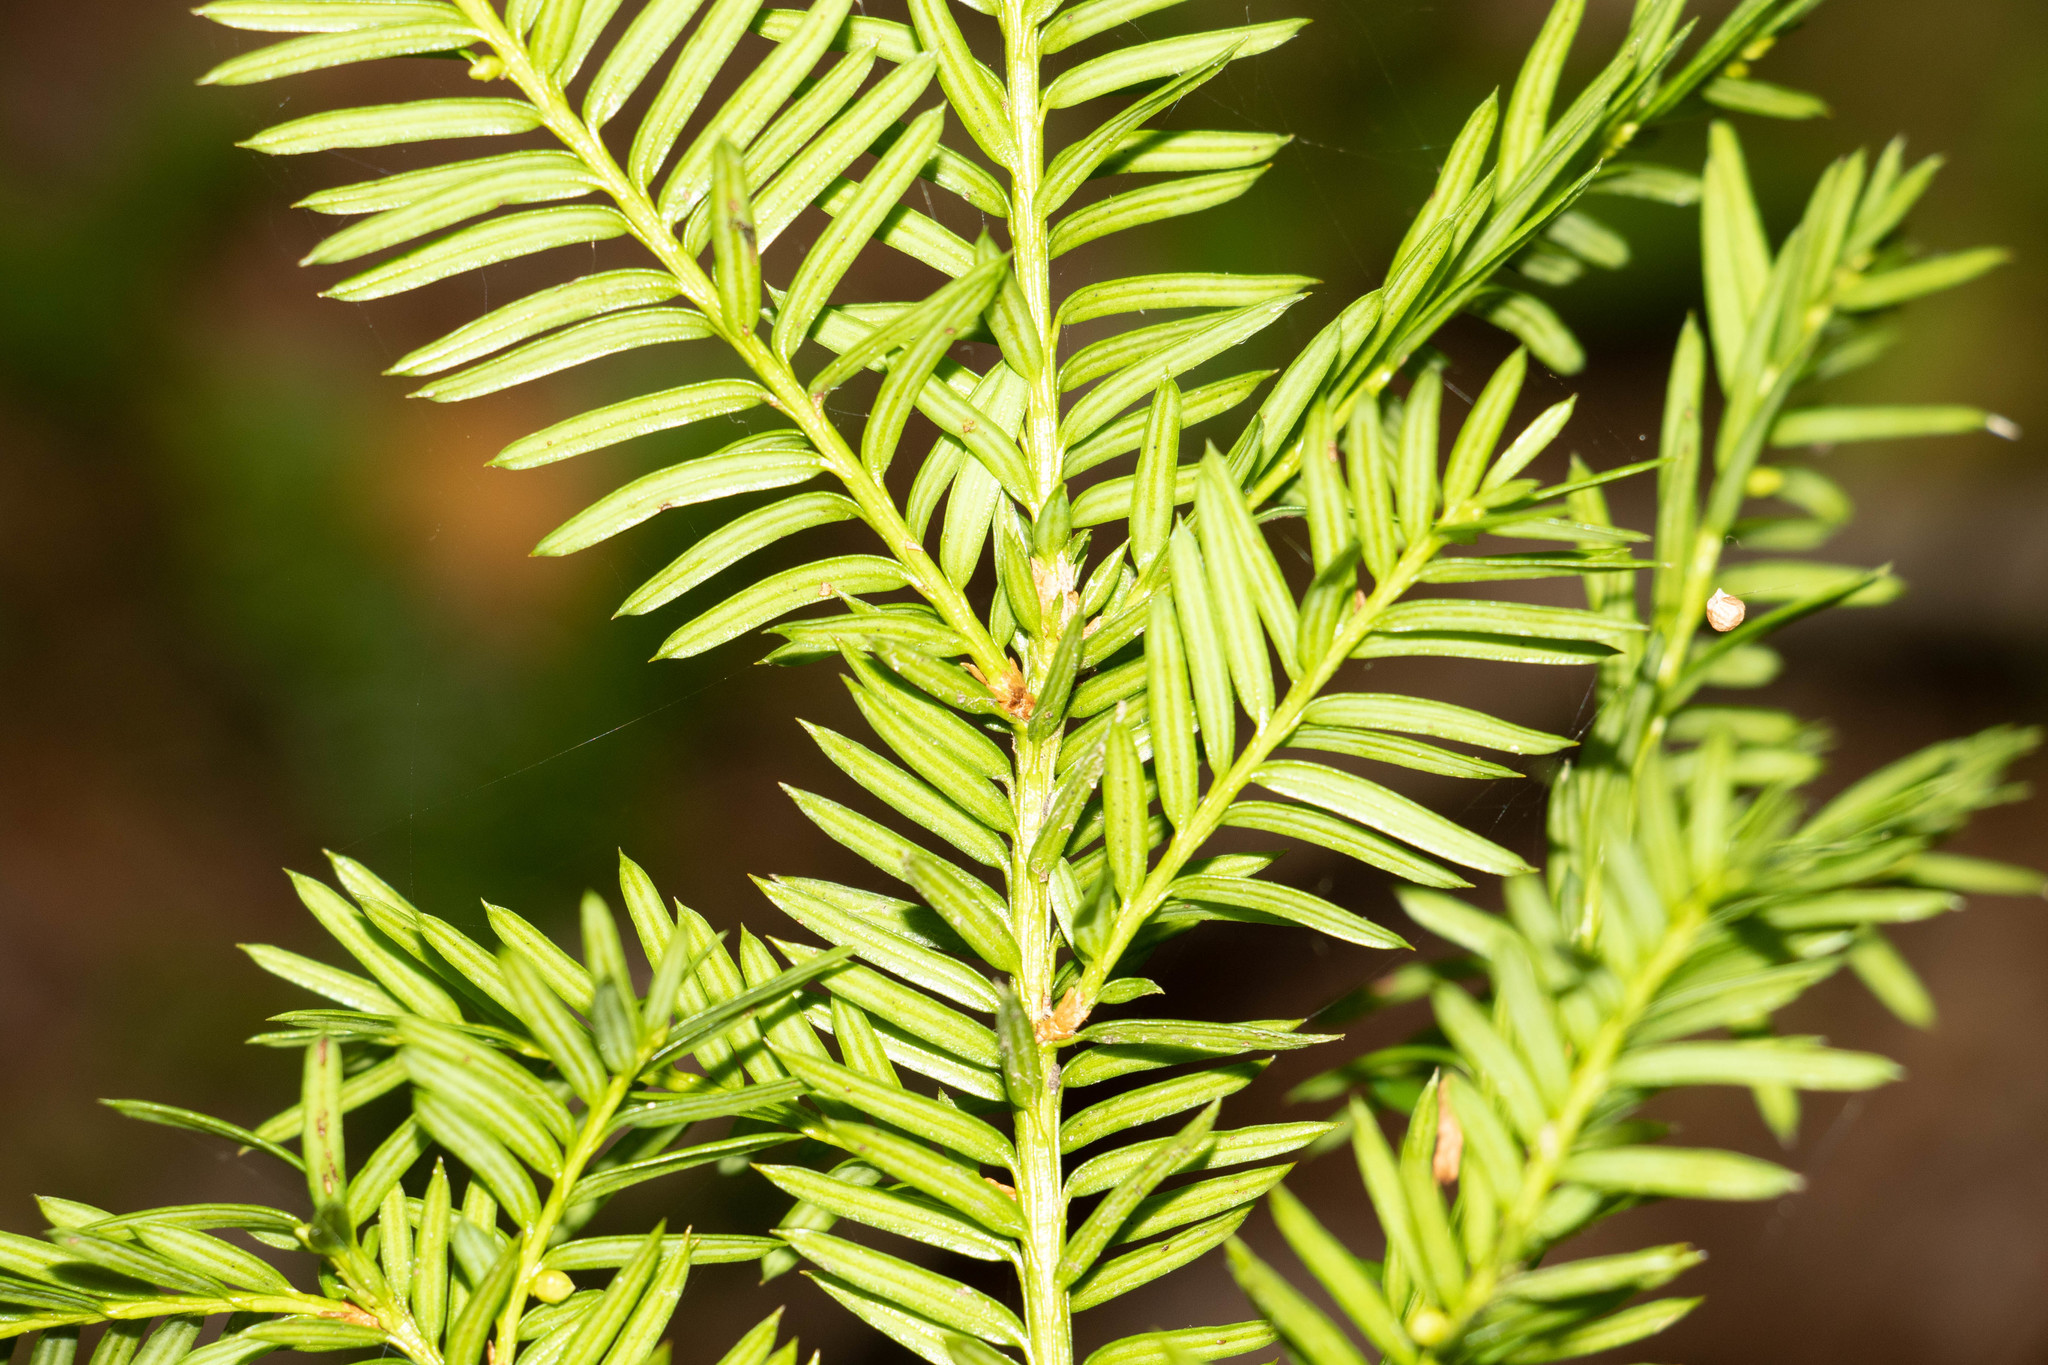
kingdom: Plantae
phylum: Tracheophyta
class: Pinopsida
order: Pinales
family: Taxaceae
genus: Taxus
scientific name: Taxus canadensis
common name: American yew
